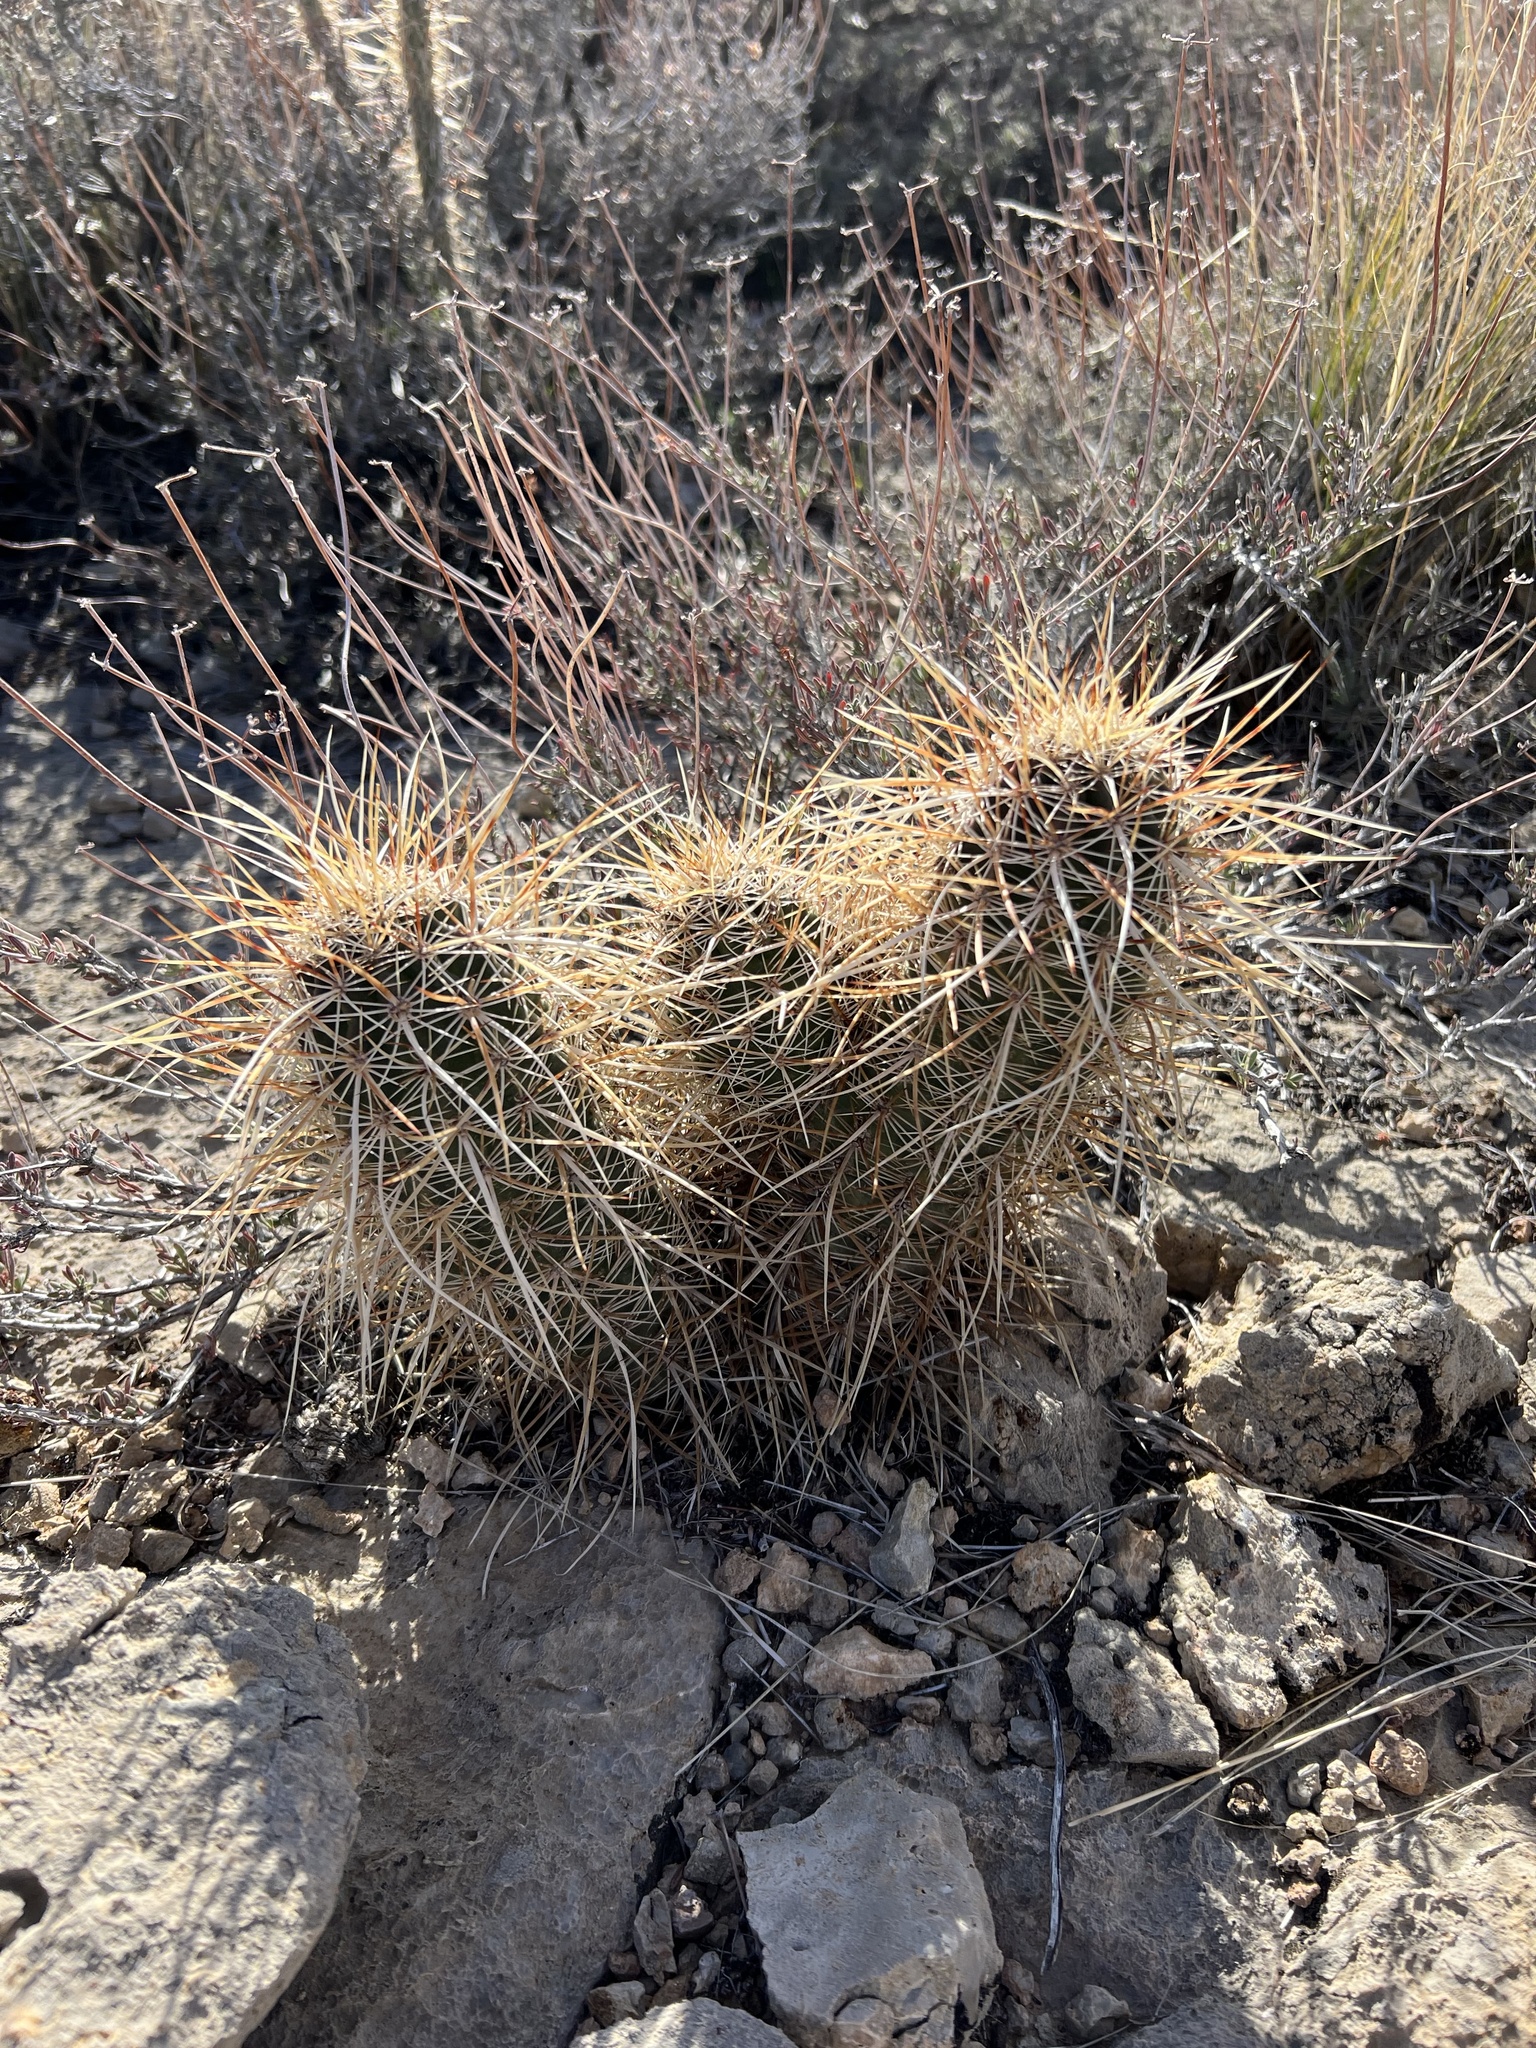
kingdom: Plantae
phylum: Tracheophyta
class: Magnoliopsida
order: Caryophyllales
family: Cactaceae
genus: Echinocereus
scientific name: Echinocereus engelmannii
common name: Engelmann's hedgehog cactus
